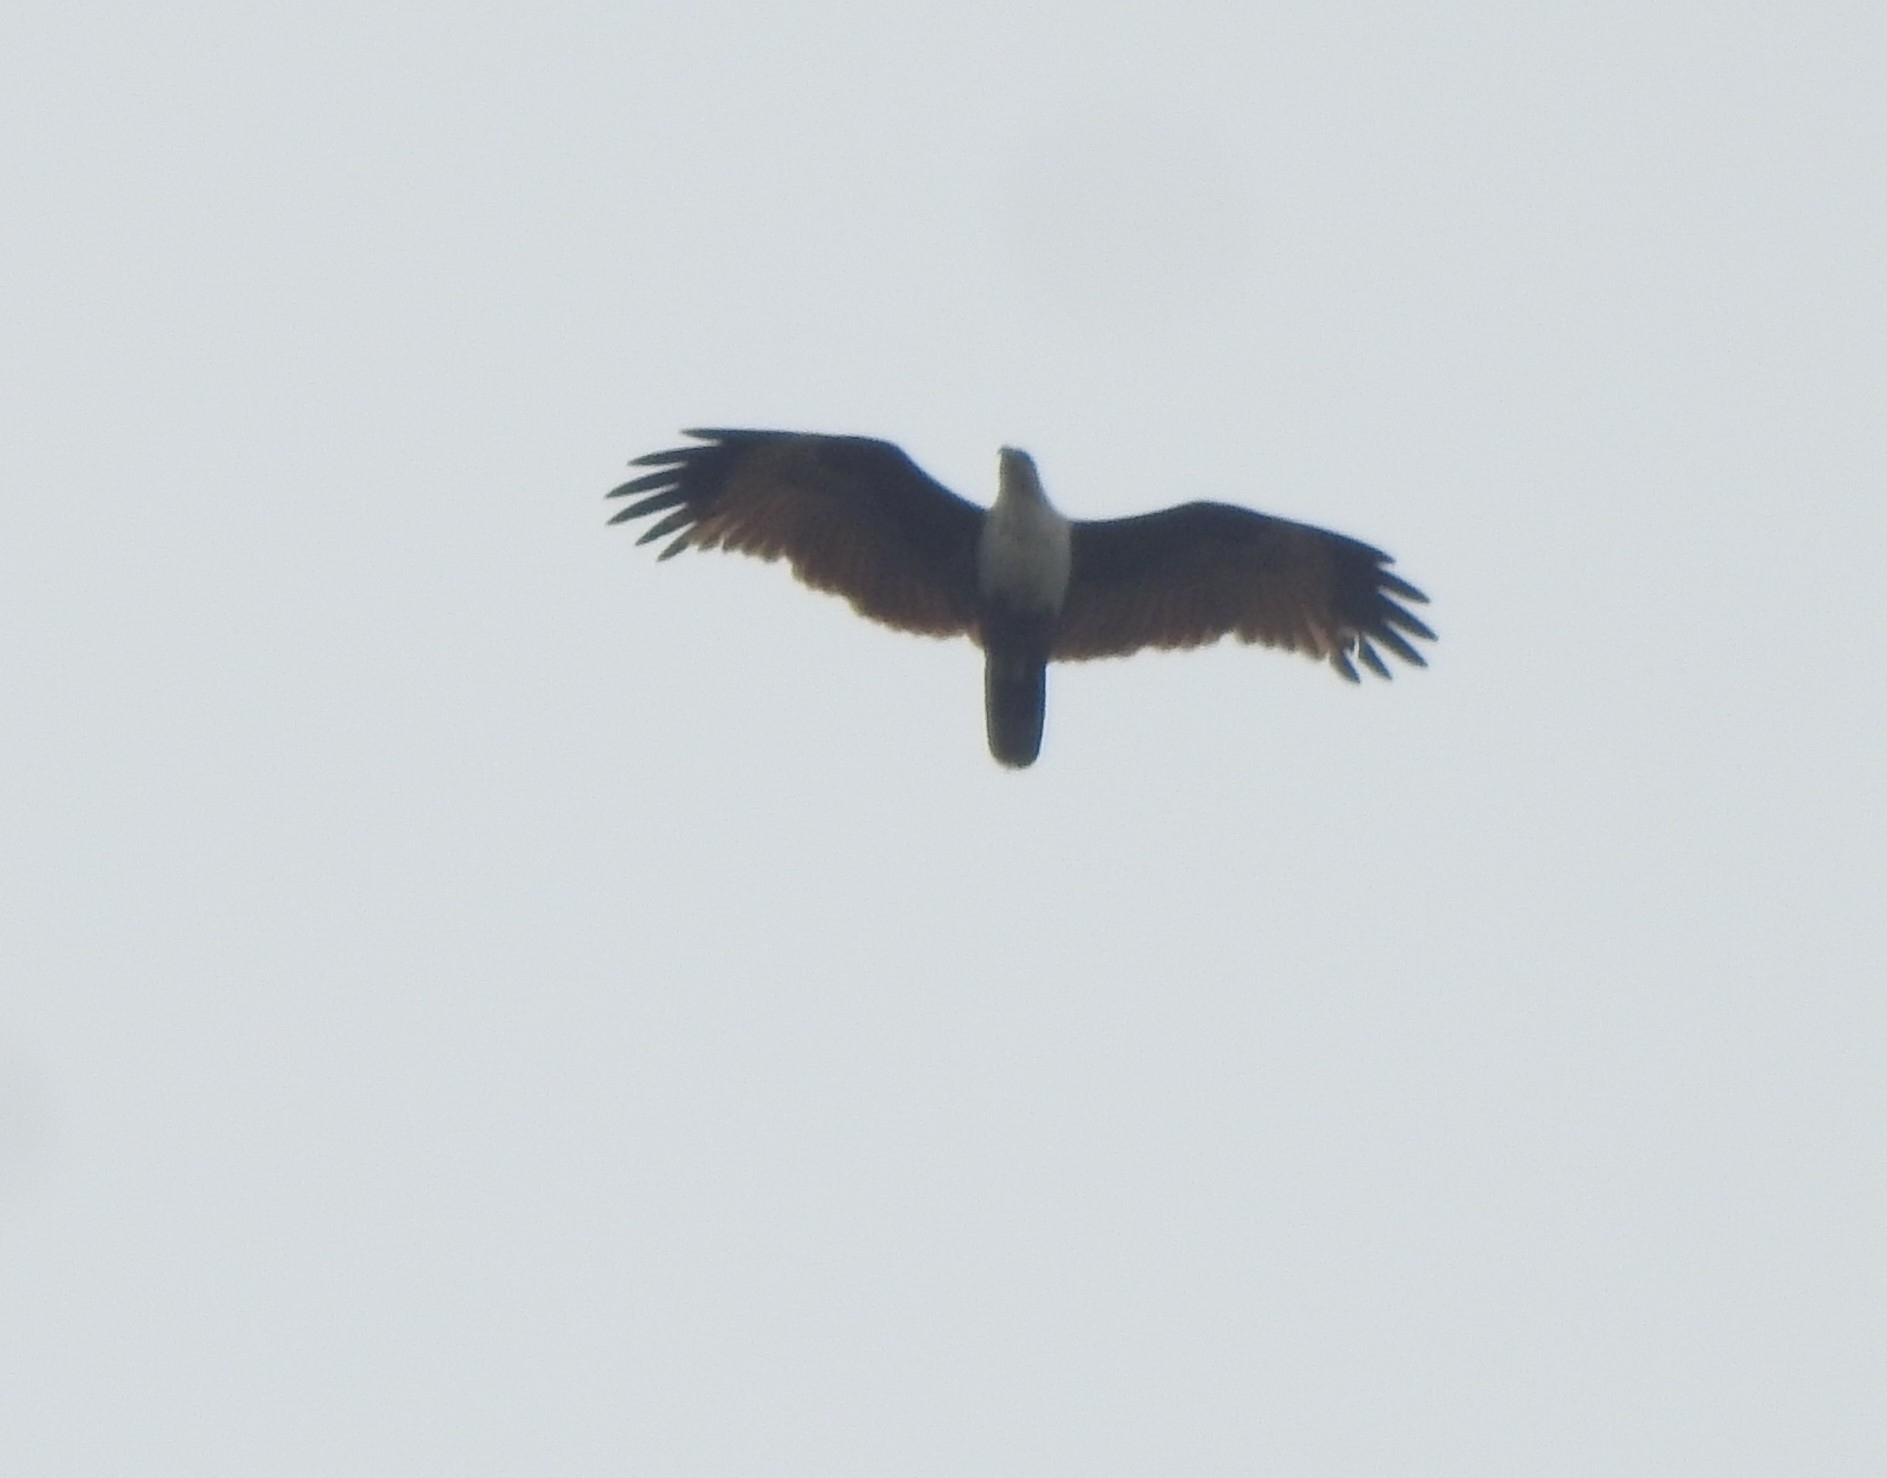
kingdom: Animalia
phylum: Chordata
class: Aves
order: Accipitriformes
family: Accipitridae
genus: Haliastur
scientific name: Haliastur indus
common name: Brahminy kite
